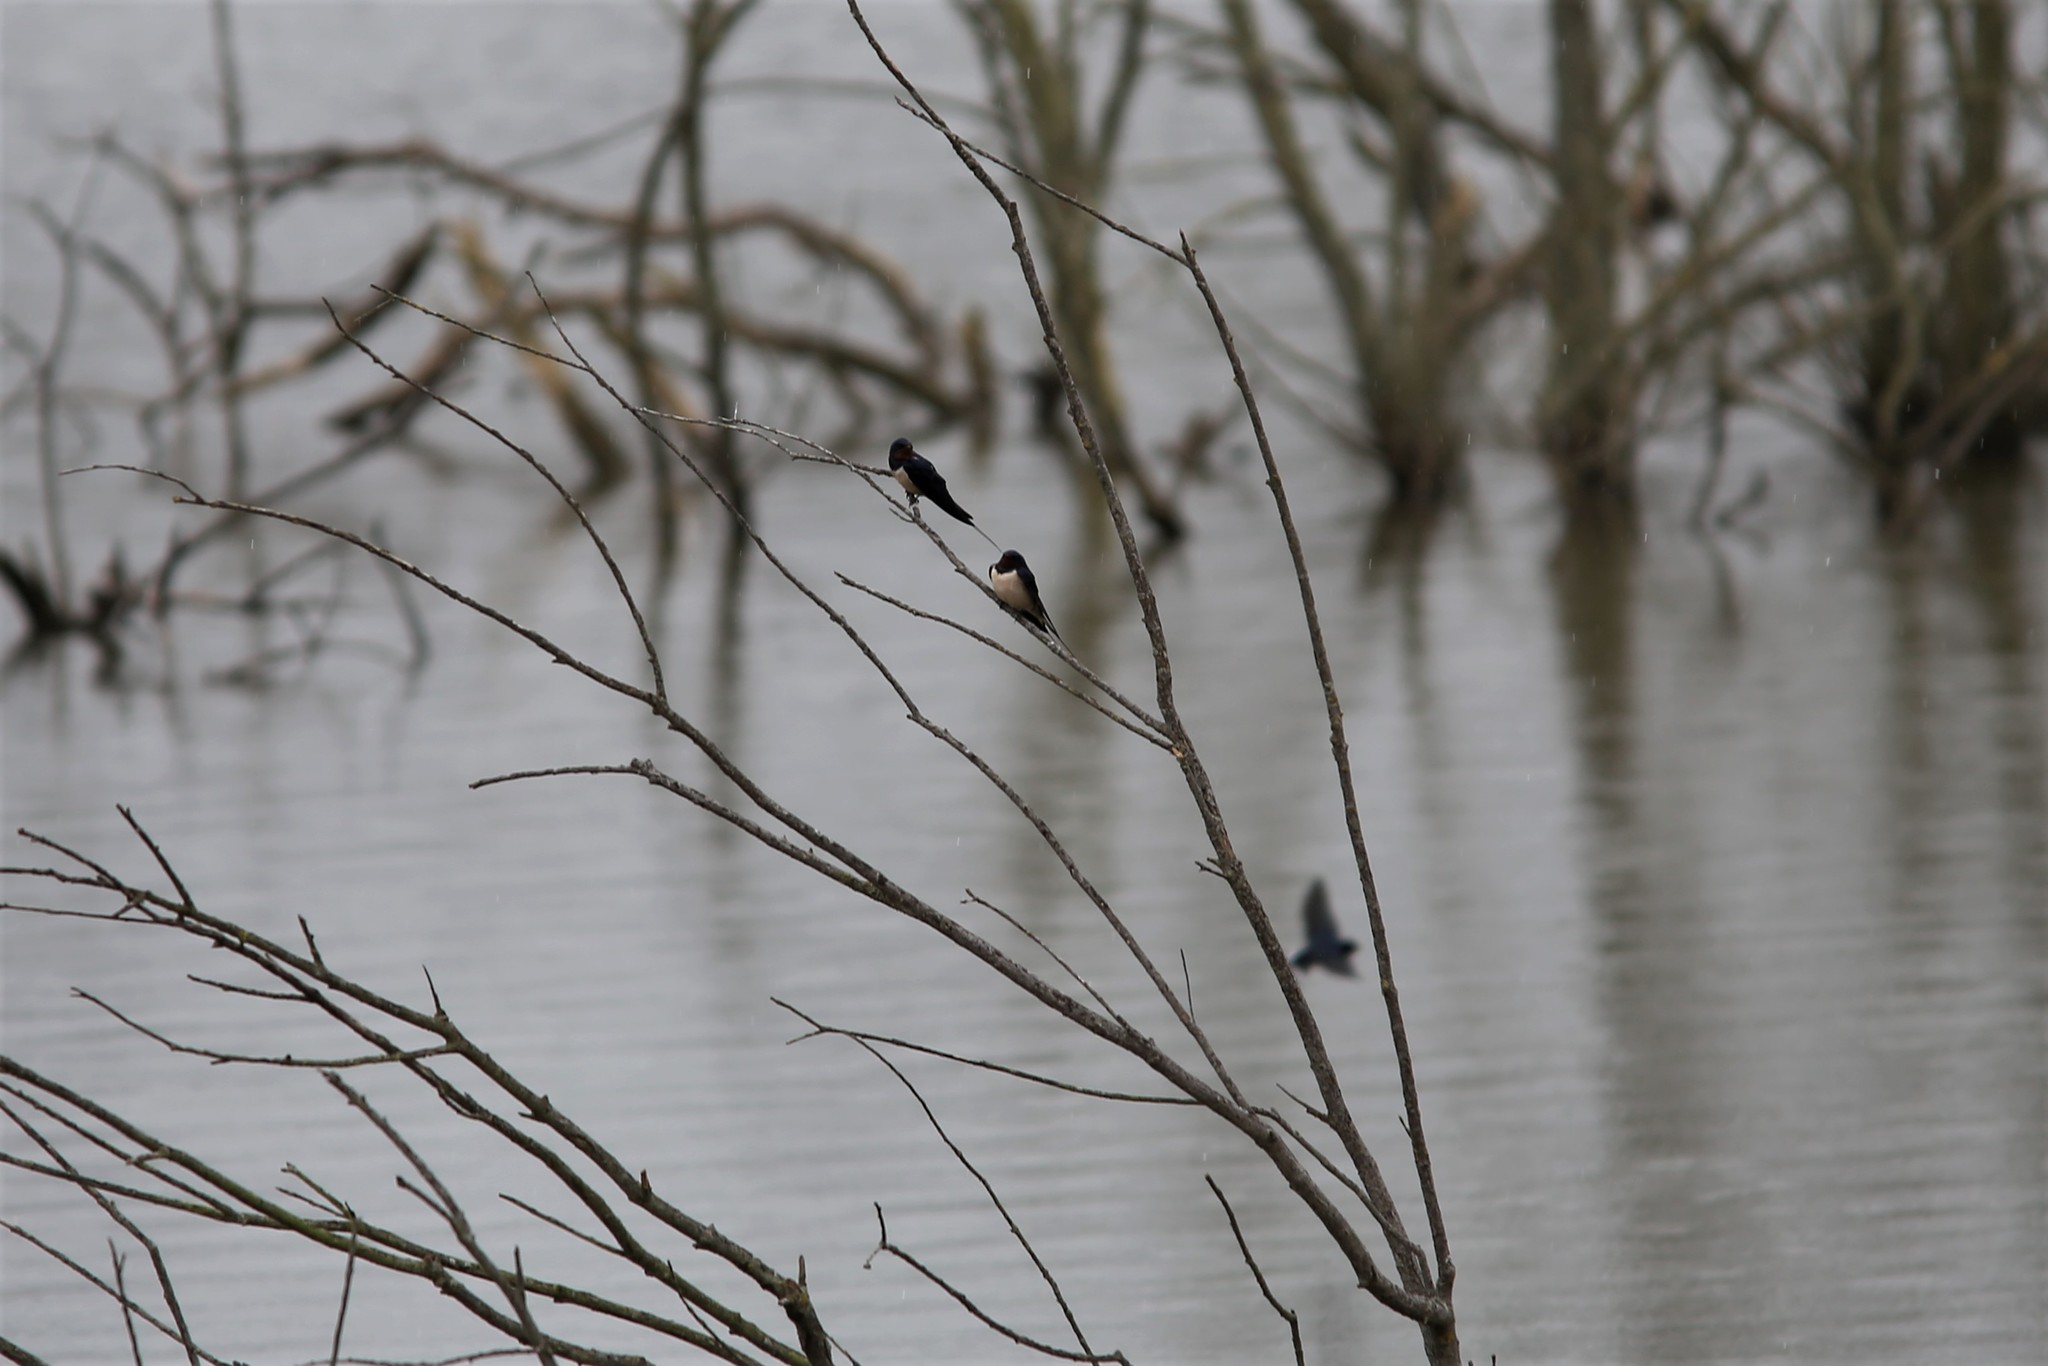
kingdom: Animalia
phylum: Chordata
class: Aves
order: Passeriformes
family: Hirundinidae
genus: Hirundo
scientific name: Hirundo rustica
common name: Barn swallow
